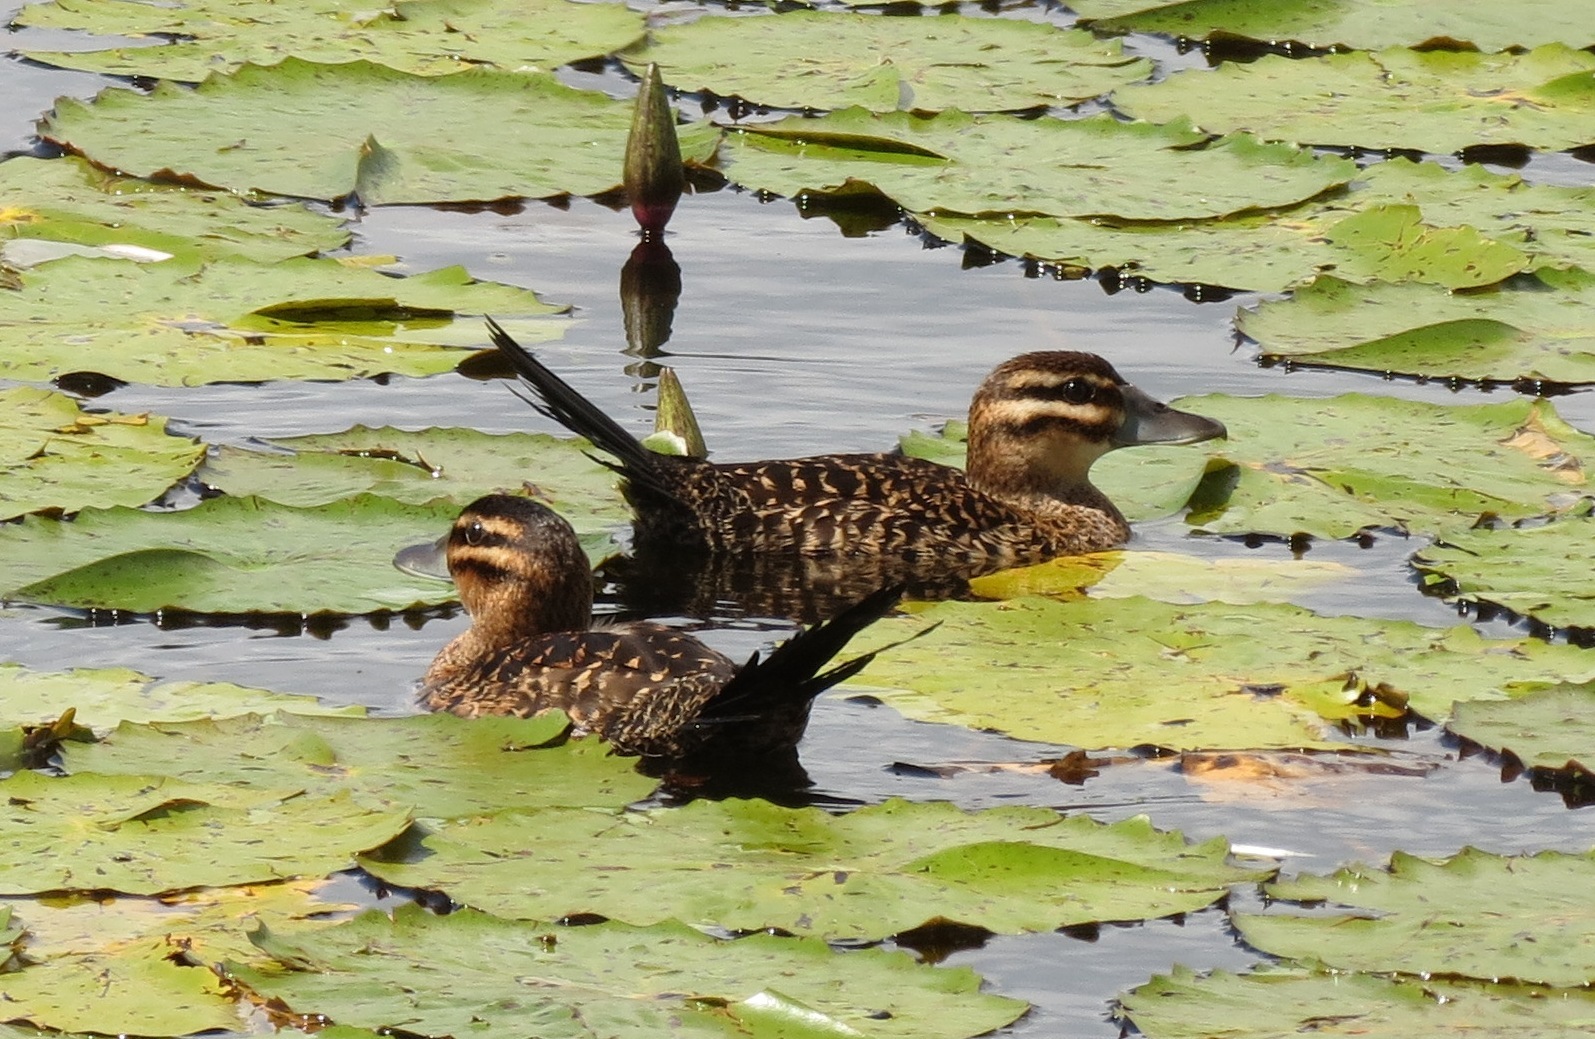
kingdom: Animalia
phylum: Chordata
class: Aves
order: Anseriformes
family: Anatidae
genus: Nomonyx
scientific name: Nomonyx dominicus
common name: Masked duck
